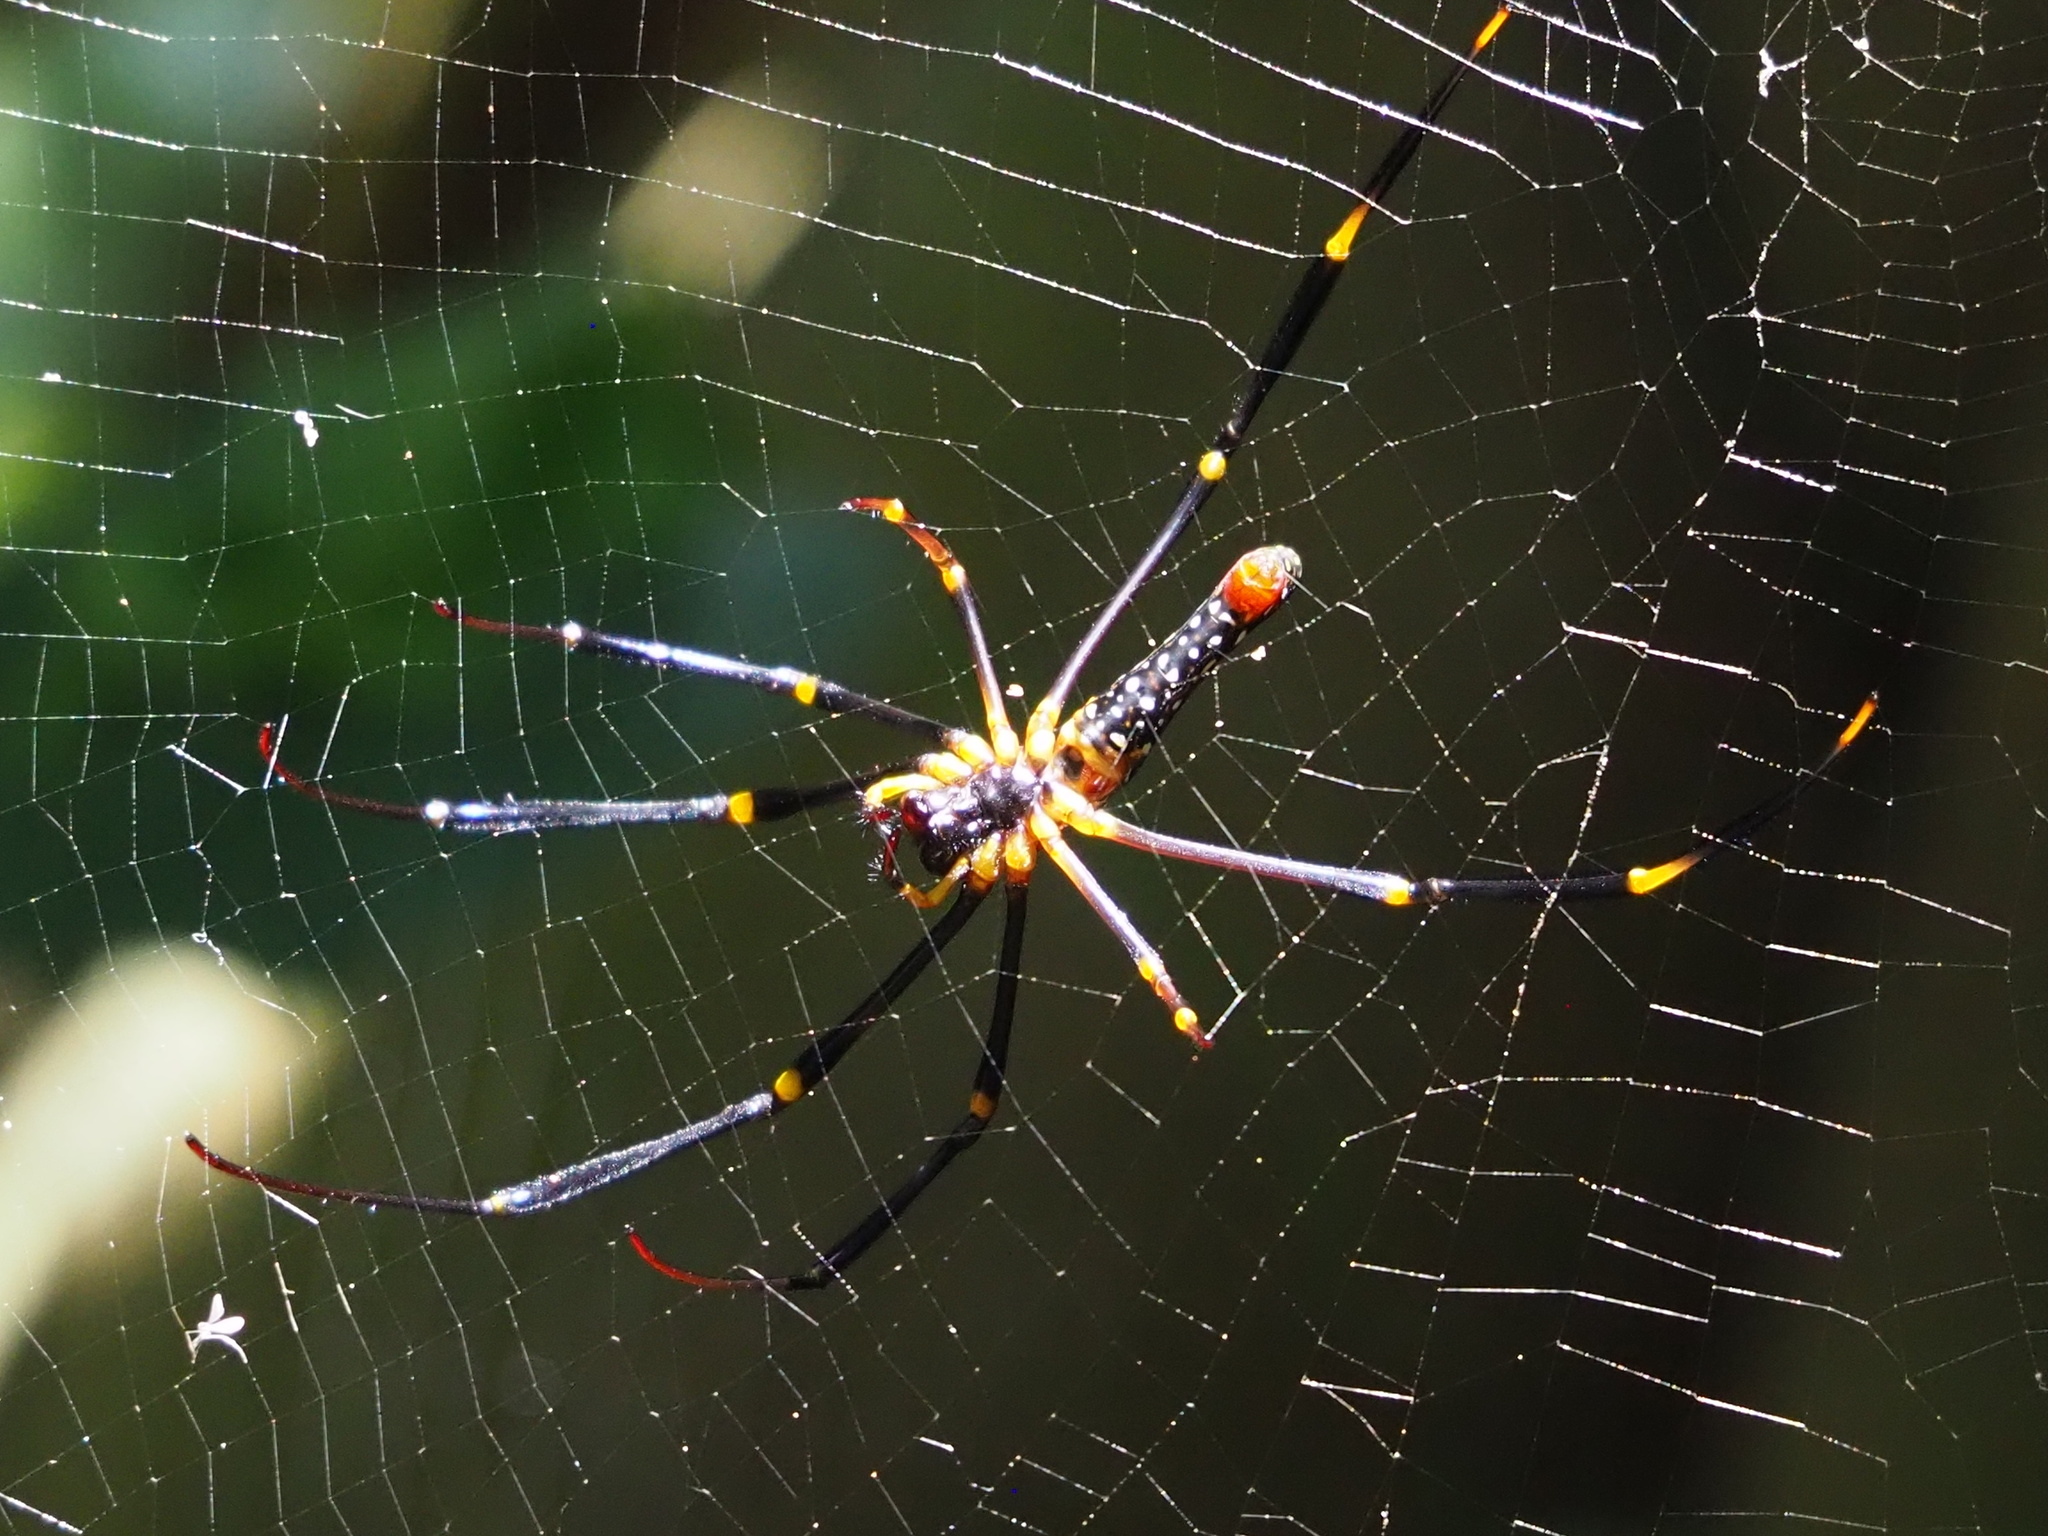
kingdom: Animalia
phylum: Arthropoda
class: Arachnida
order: Araneae
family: Araneidae
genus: Nephila
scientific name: Nephila pilipes
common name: Giant golden orb weaver
